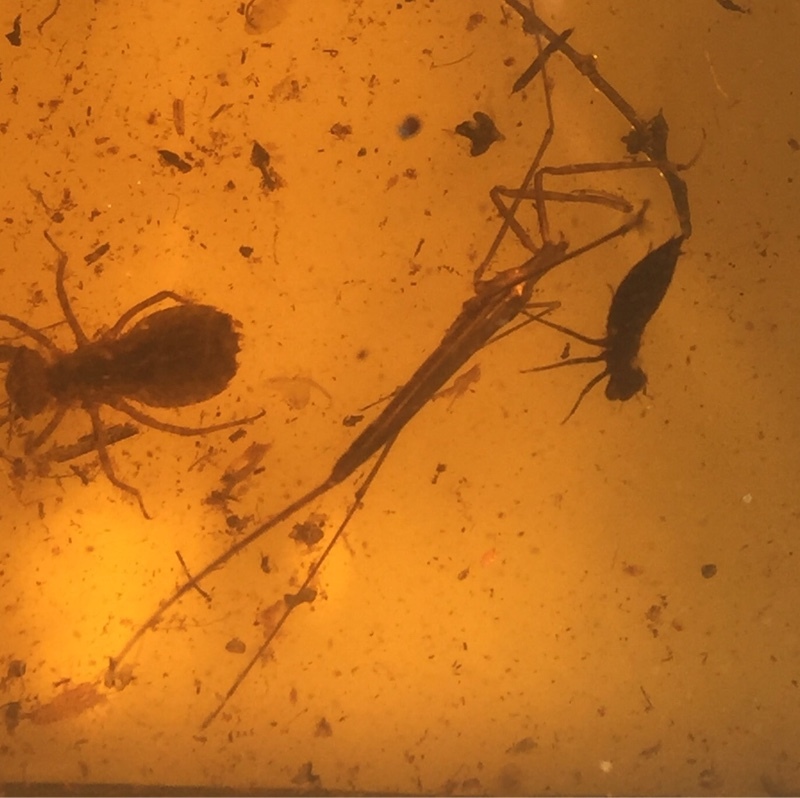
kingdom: Animalia
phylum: Arthropoda
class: Insecta
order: Hemiptera
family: Nepidae
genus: Ranatra
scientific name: Ranatra linearis
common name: Water stick insect
